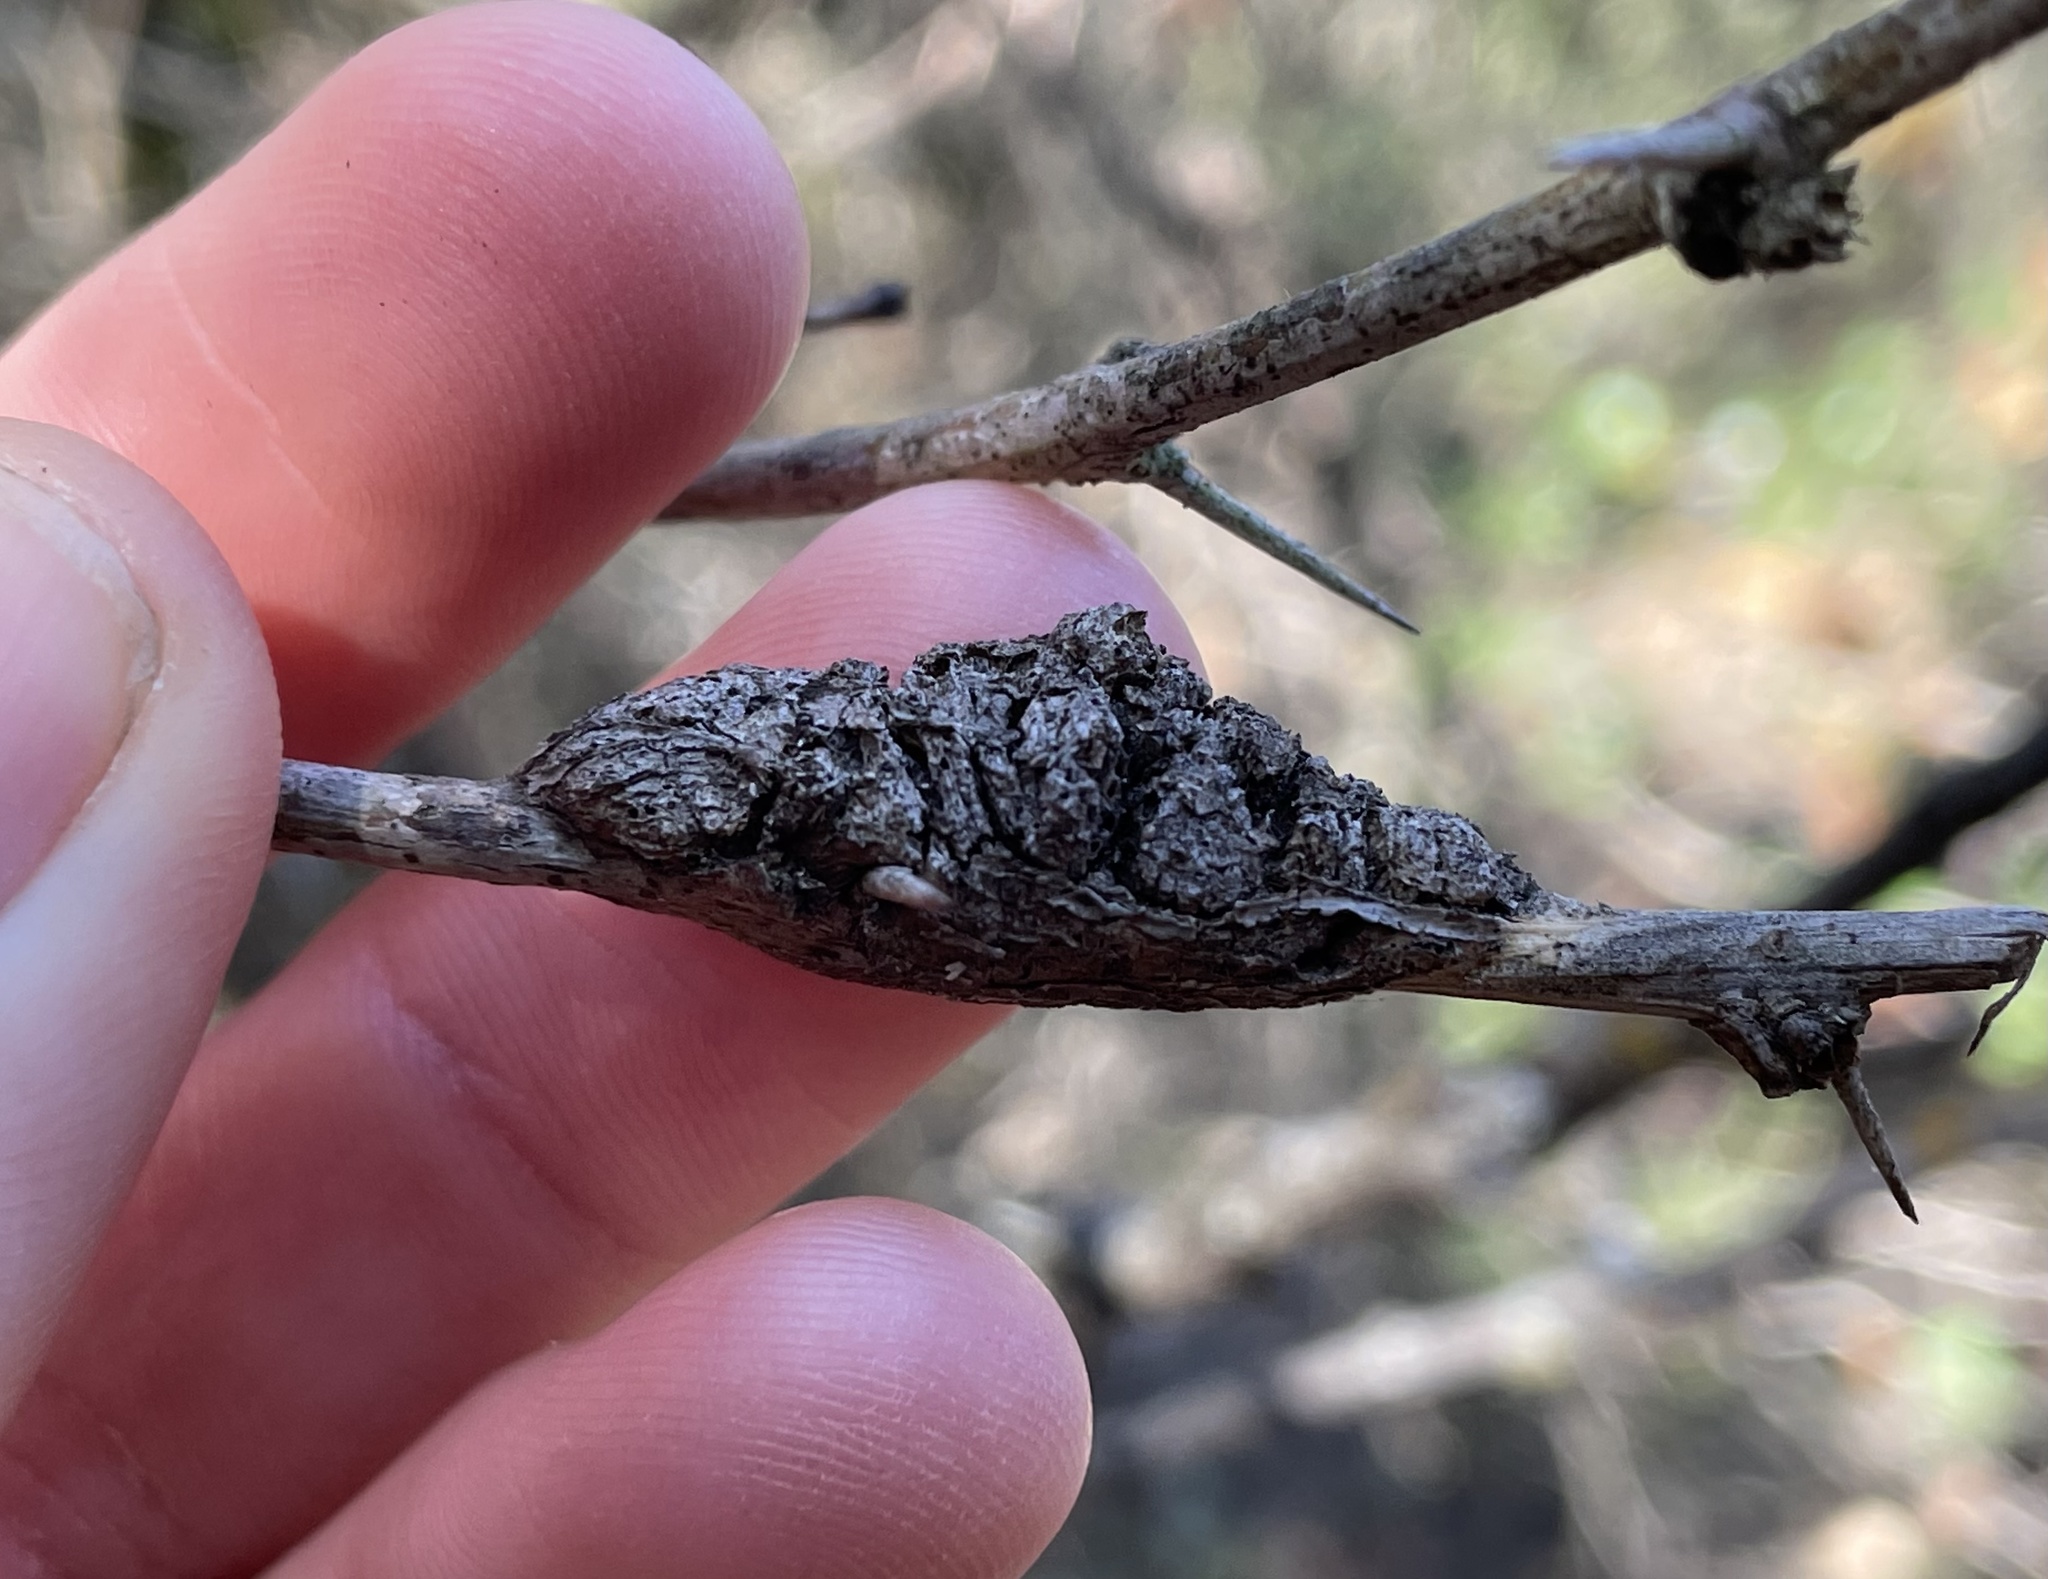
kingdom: Bacteria
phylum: Proteobacteria
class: Alphaproteobacteria
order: Rhizobiales
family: Rhizobiaceae
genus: Rhizobium
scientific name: Rhizobium Agrobacterium radiobacter
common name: Bacterial crown gall
